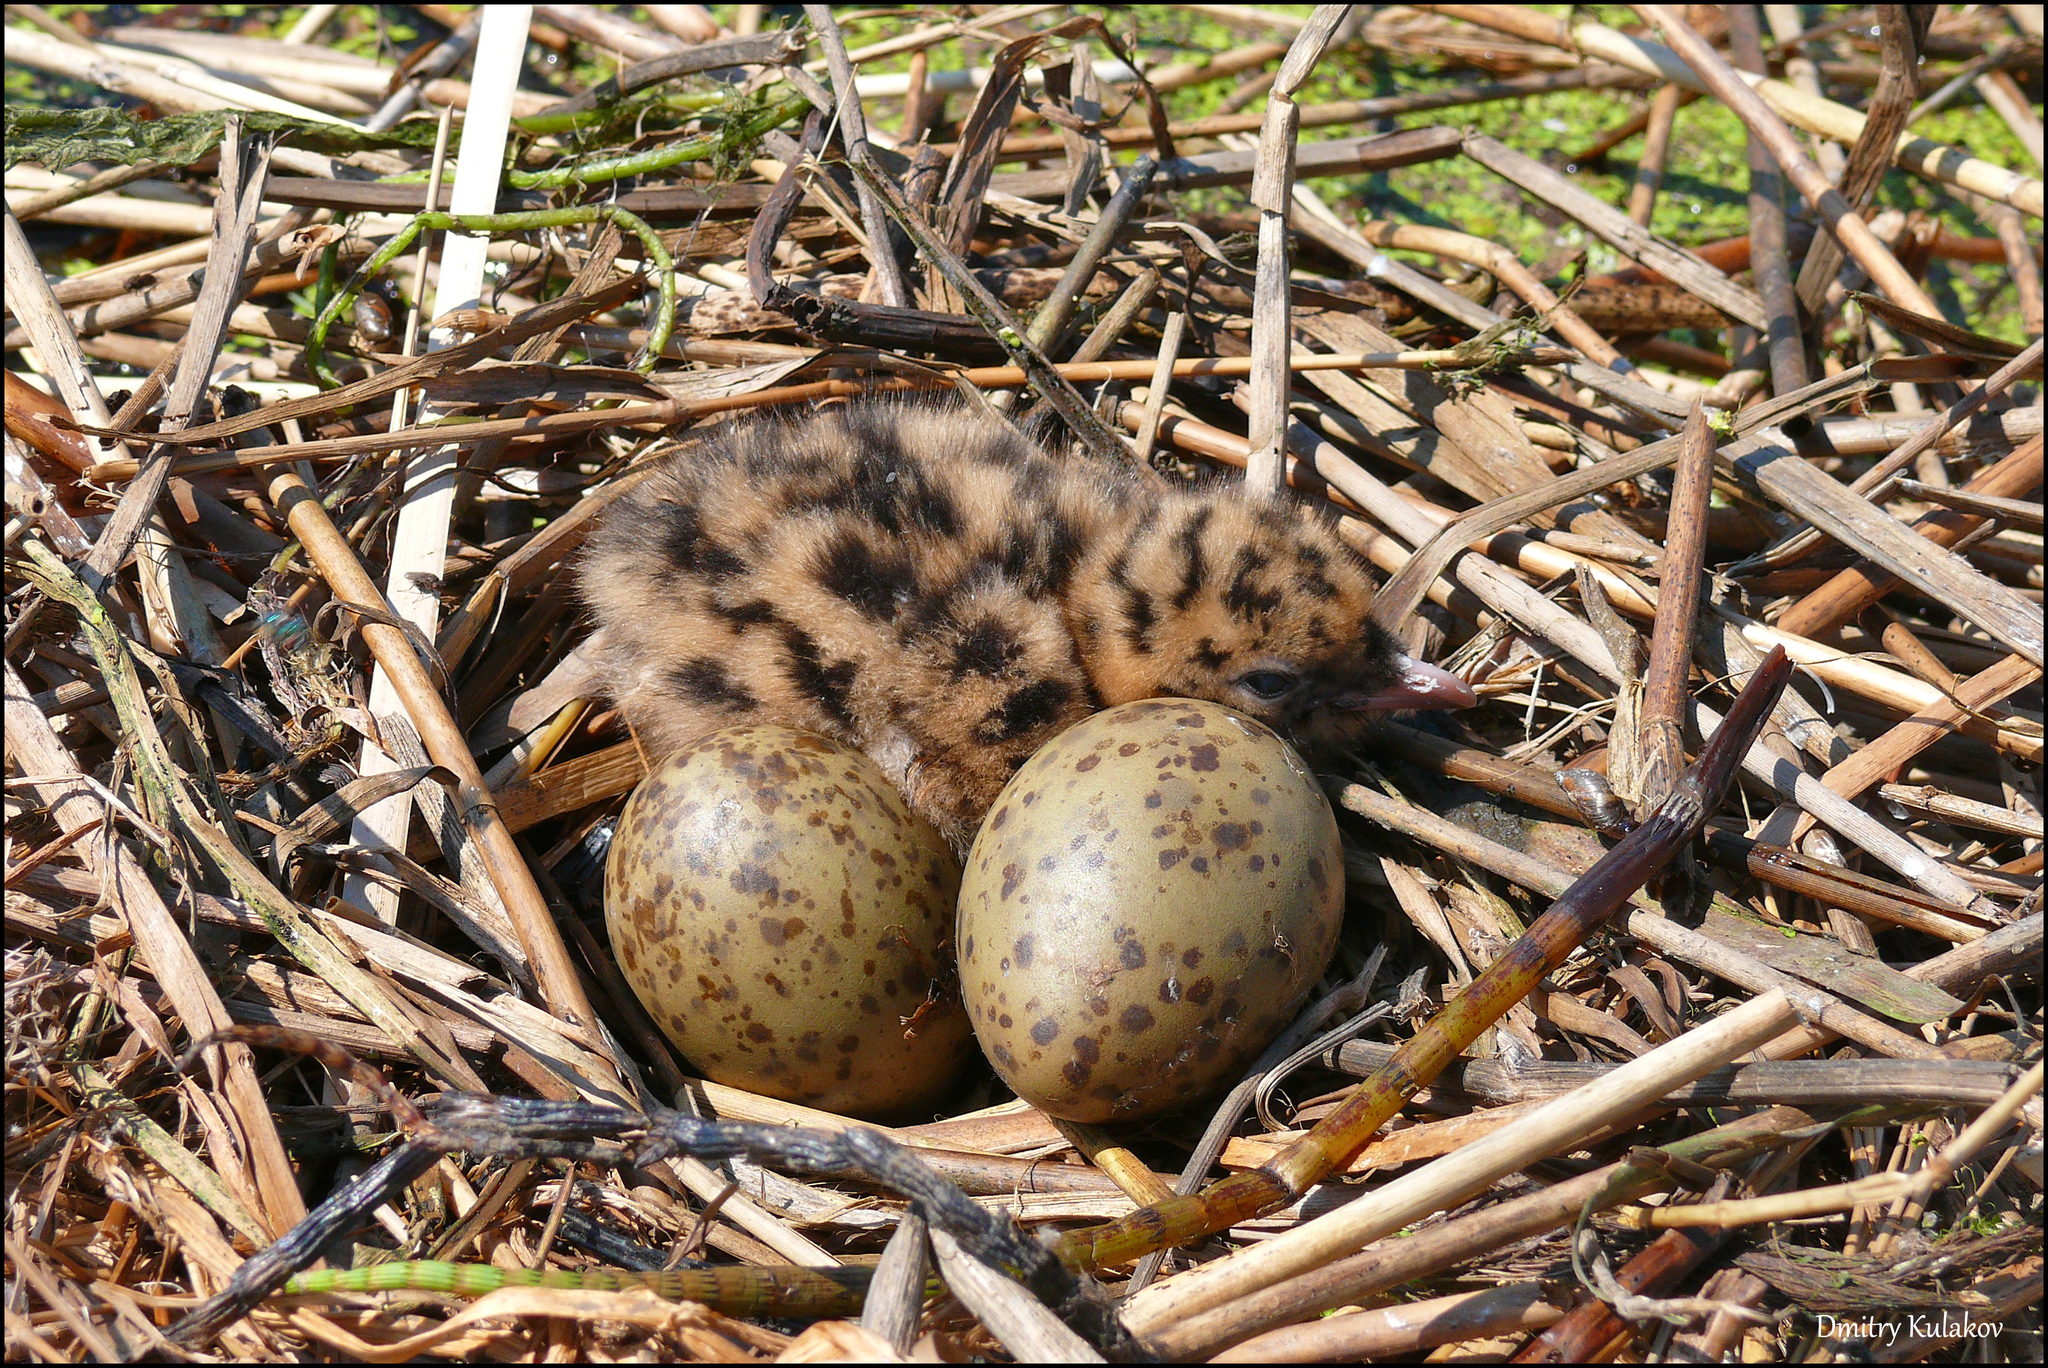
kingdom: Animalia
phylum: Chordata
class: Aves
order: Charadriiformes
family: Laridae
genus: Chroicocephalus
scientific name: Chroicocephalus ridibundus
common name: Black-headed gull
